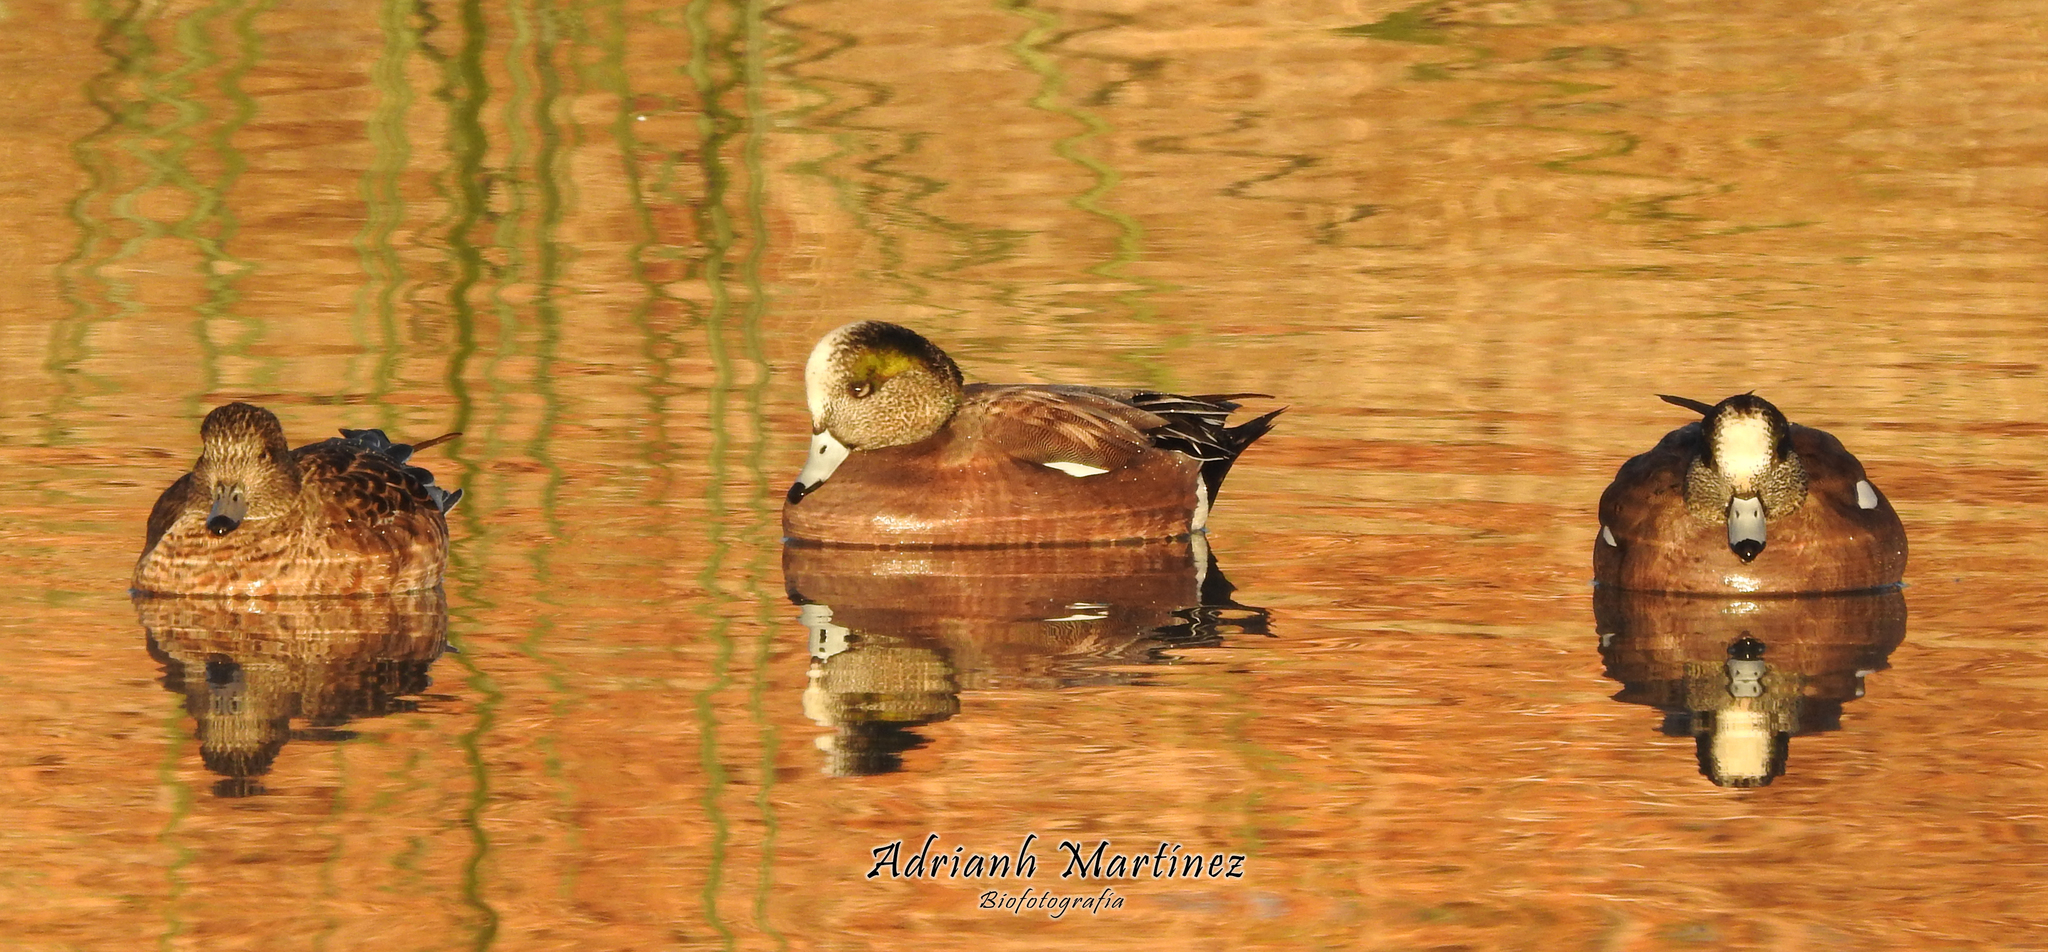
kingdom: Animalia
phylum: Chordata
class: Aves
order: Anseriformes
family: Anatidae
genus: Mareca
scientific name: Mareca americana
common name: American wigeon
